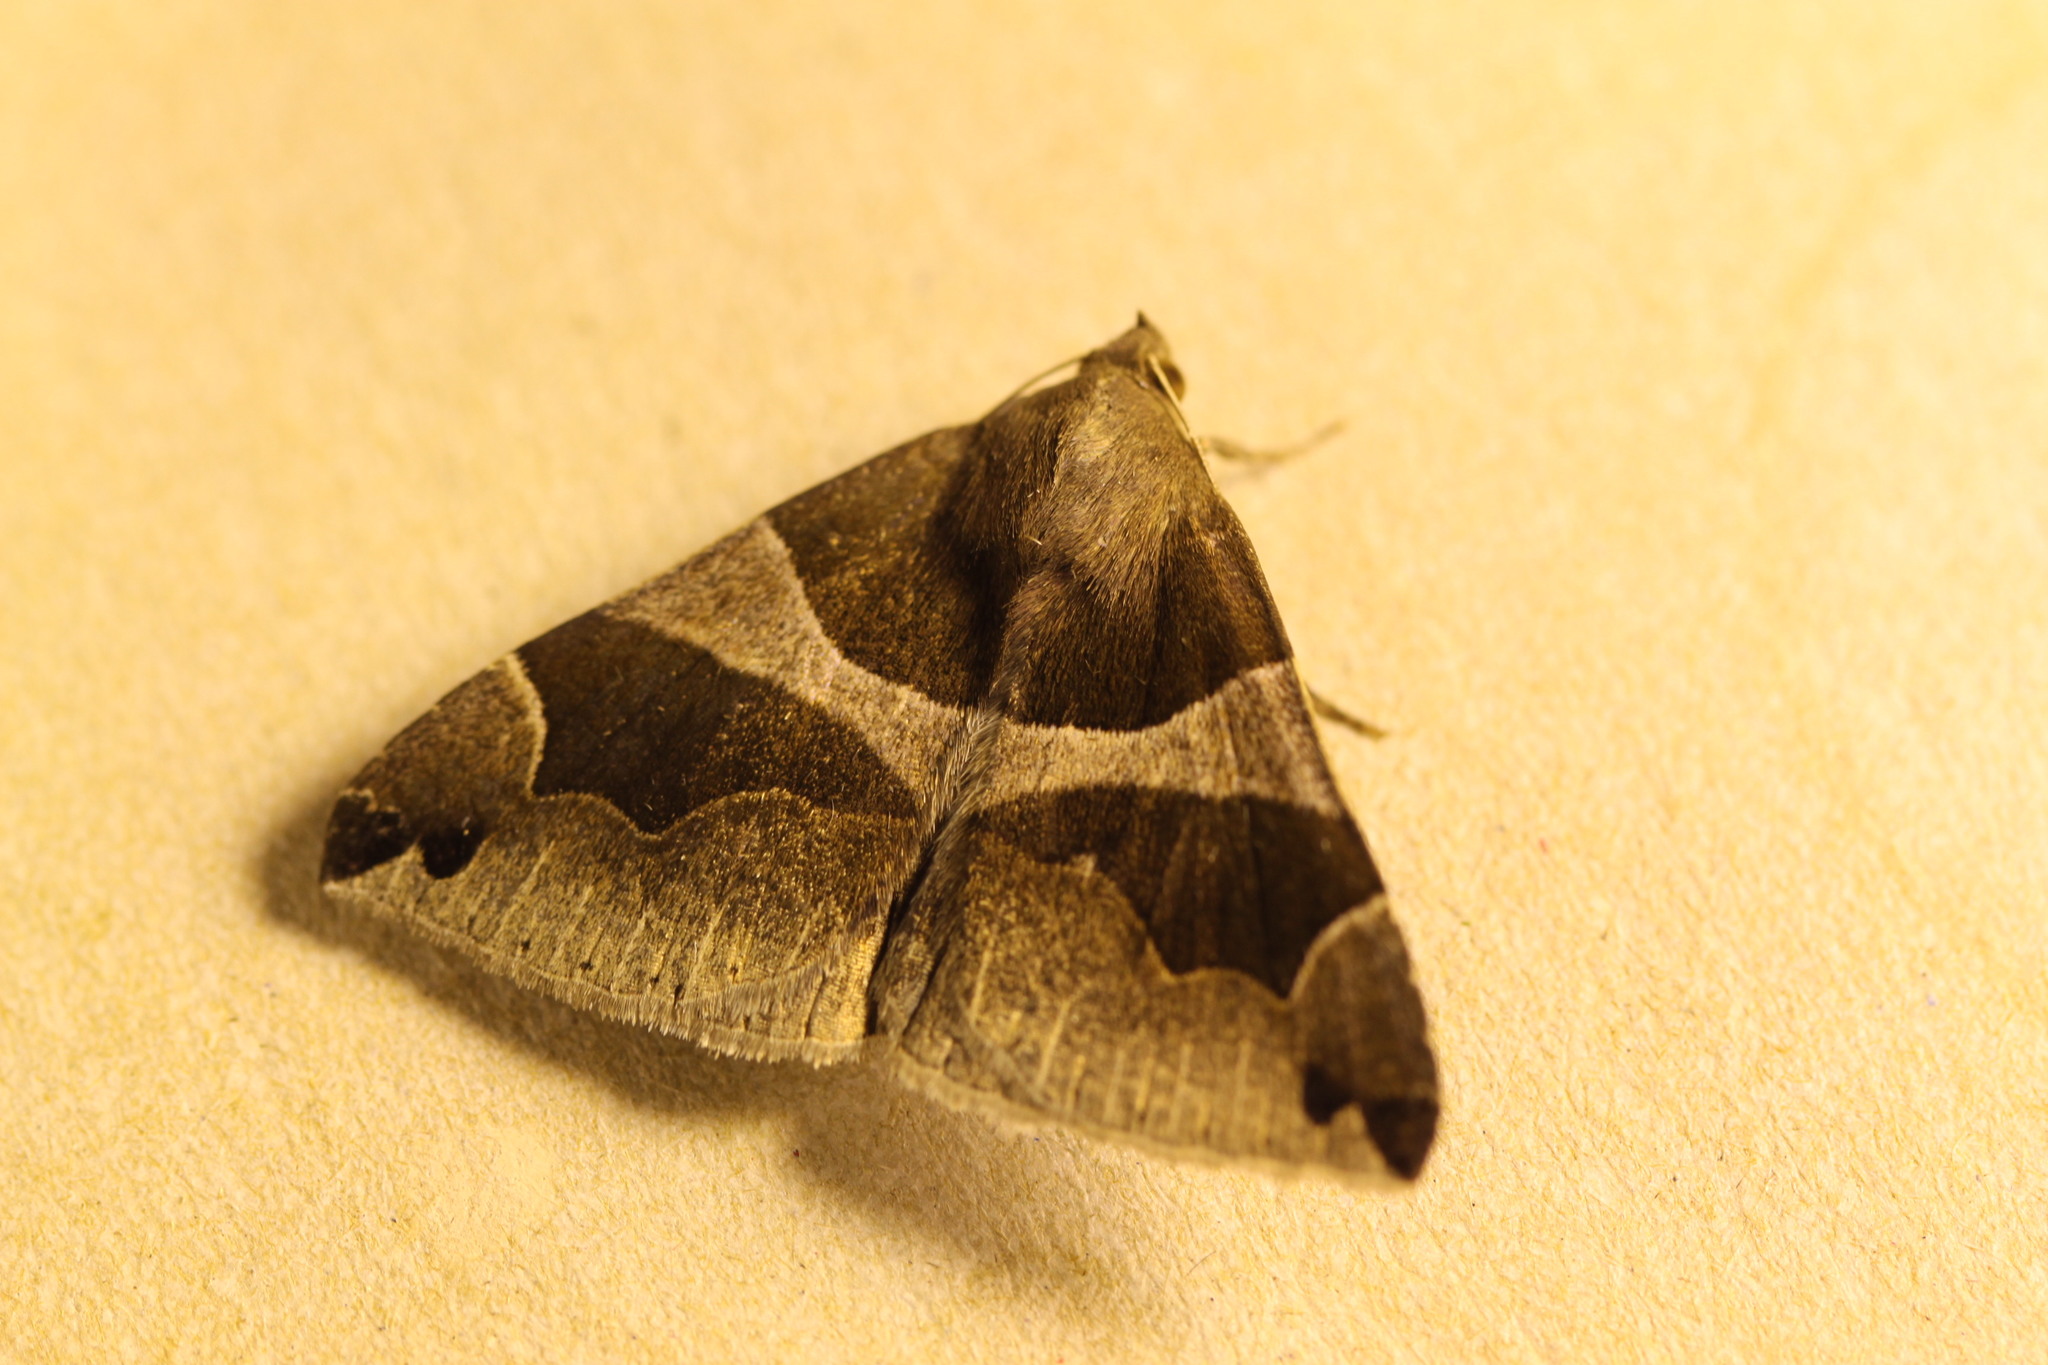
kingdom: Animalia
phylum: Arthropoda
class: Insecta
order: Lepidoptera
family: Erebidae
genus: Dysgonia
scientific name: Dysgonia algira
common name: Passenger
